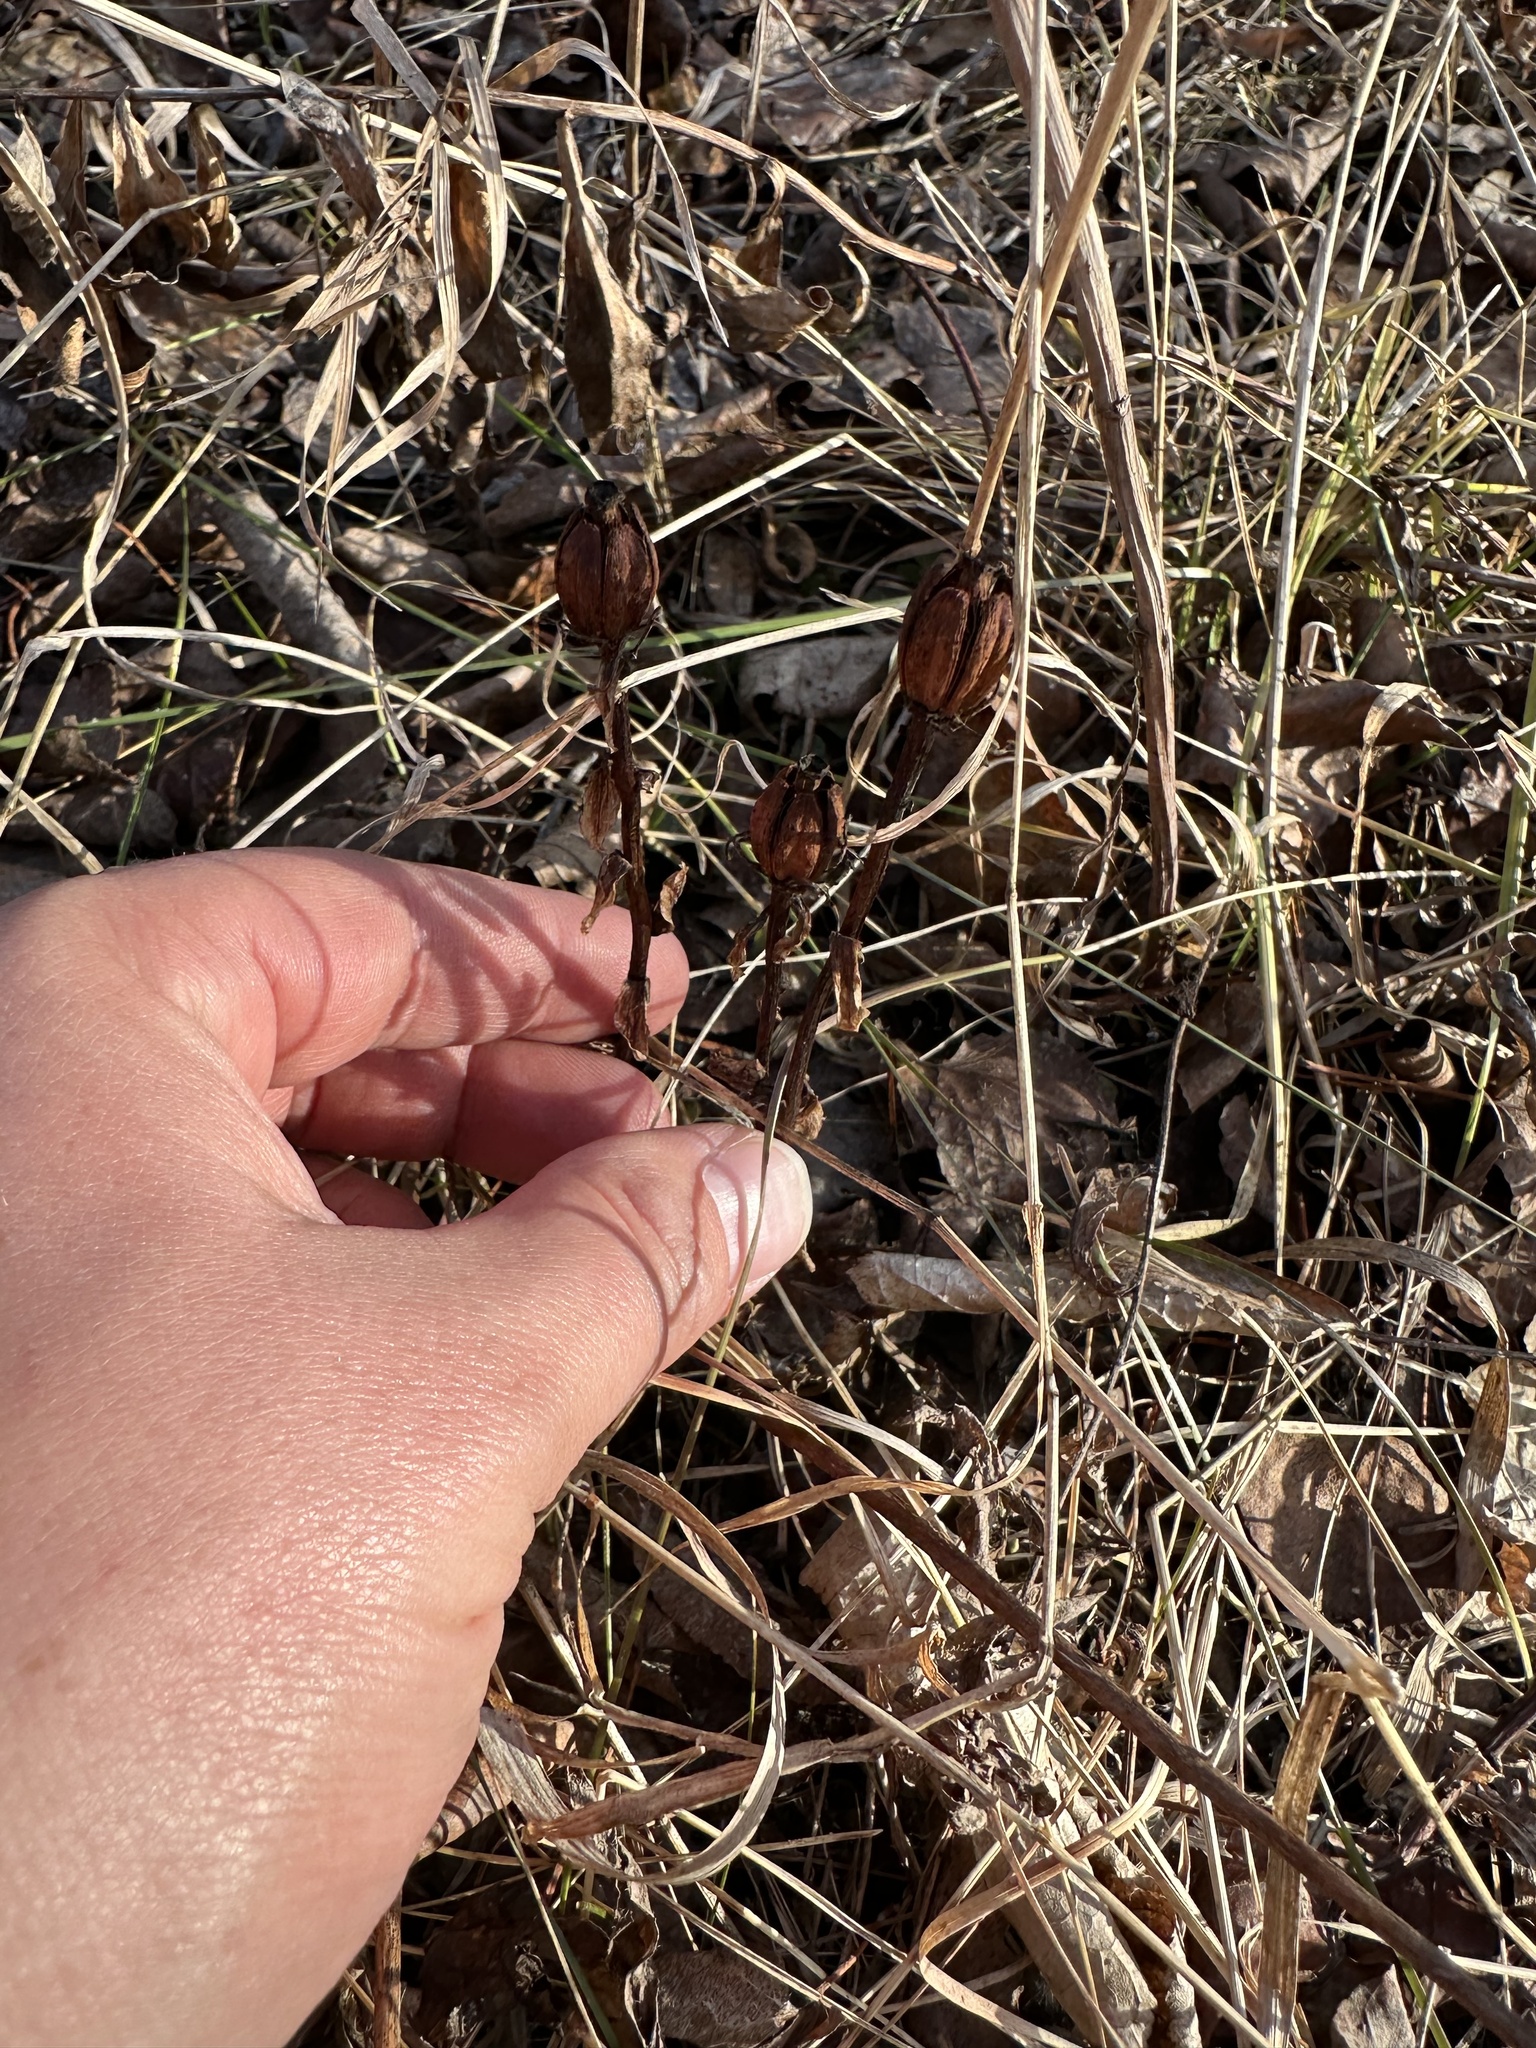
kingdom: Plantae
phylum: Tracheophyta
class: Magnoliopsida
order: Ericales
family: Ericaceae
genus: Monotropa
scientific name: Monotropa uniflora
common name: Convulsion root
